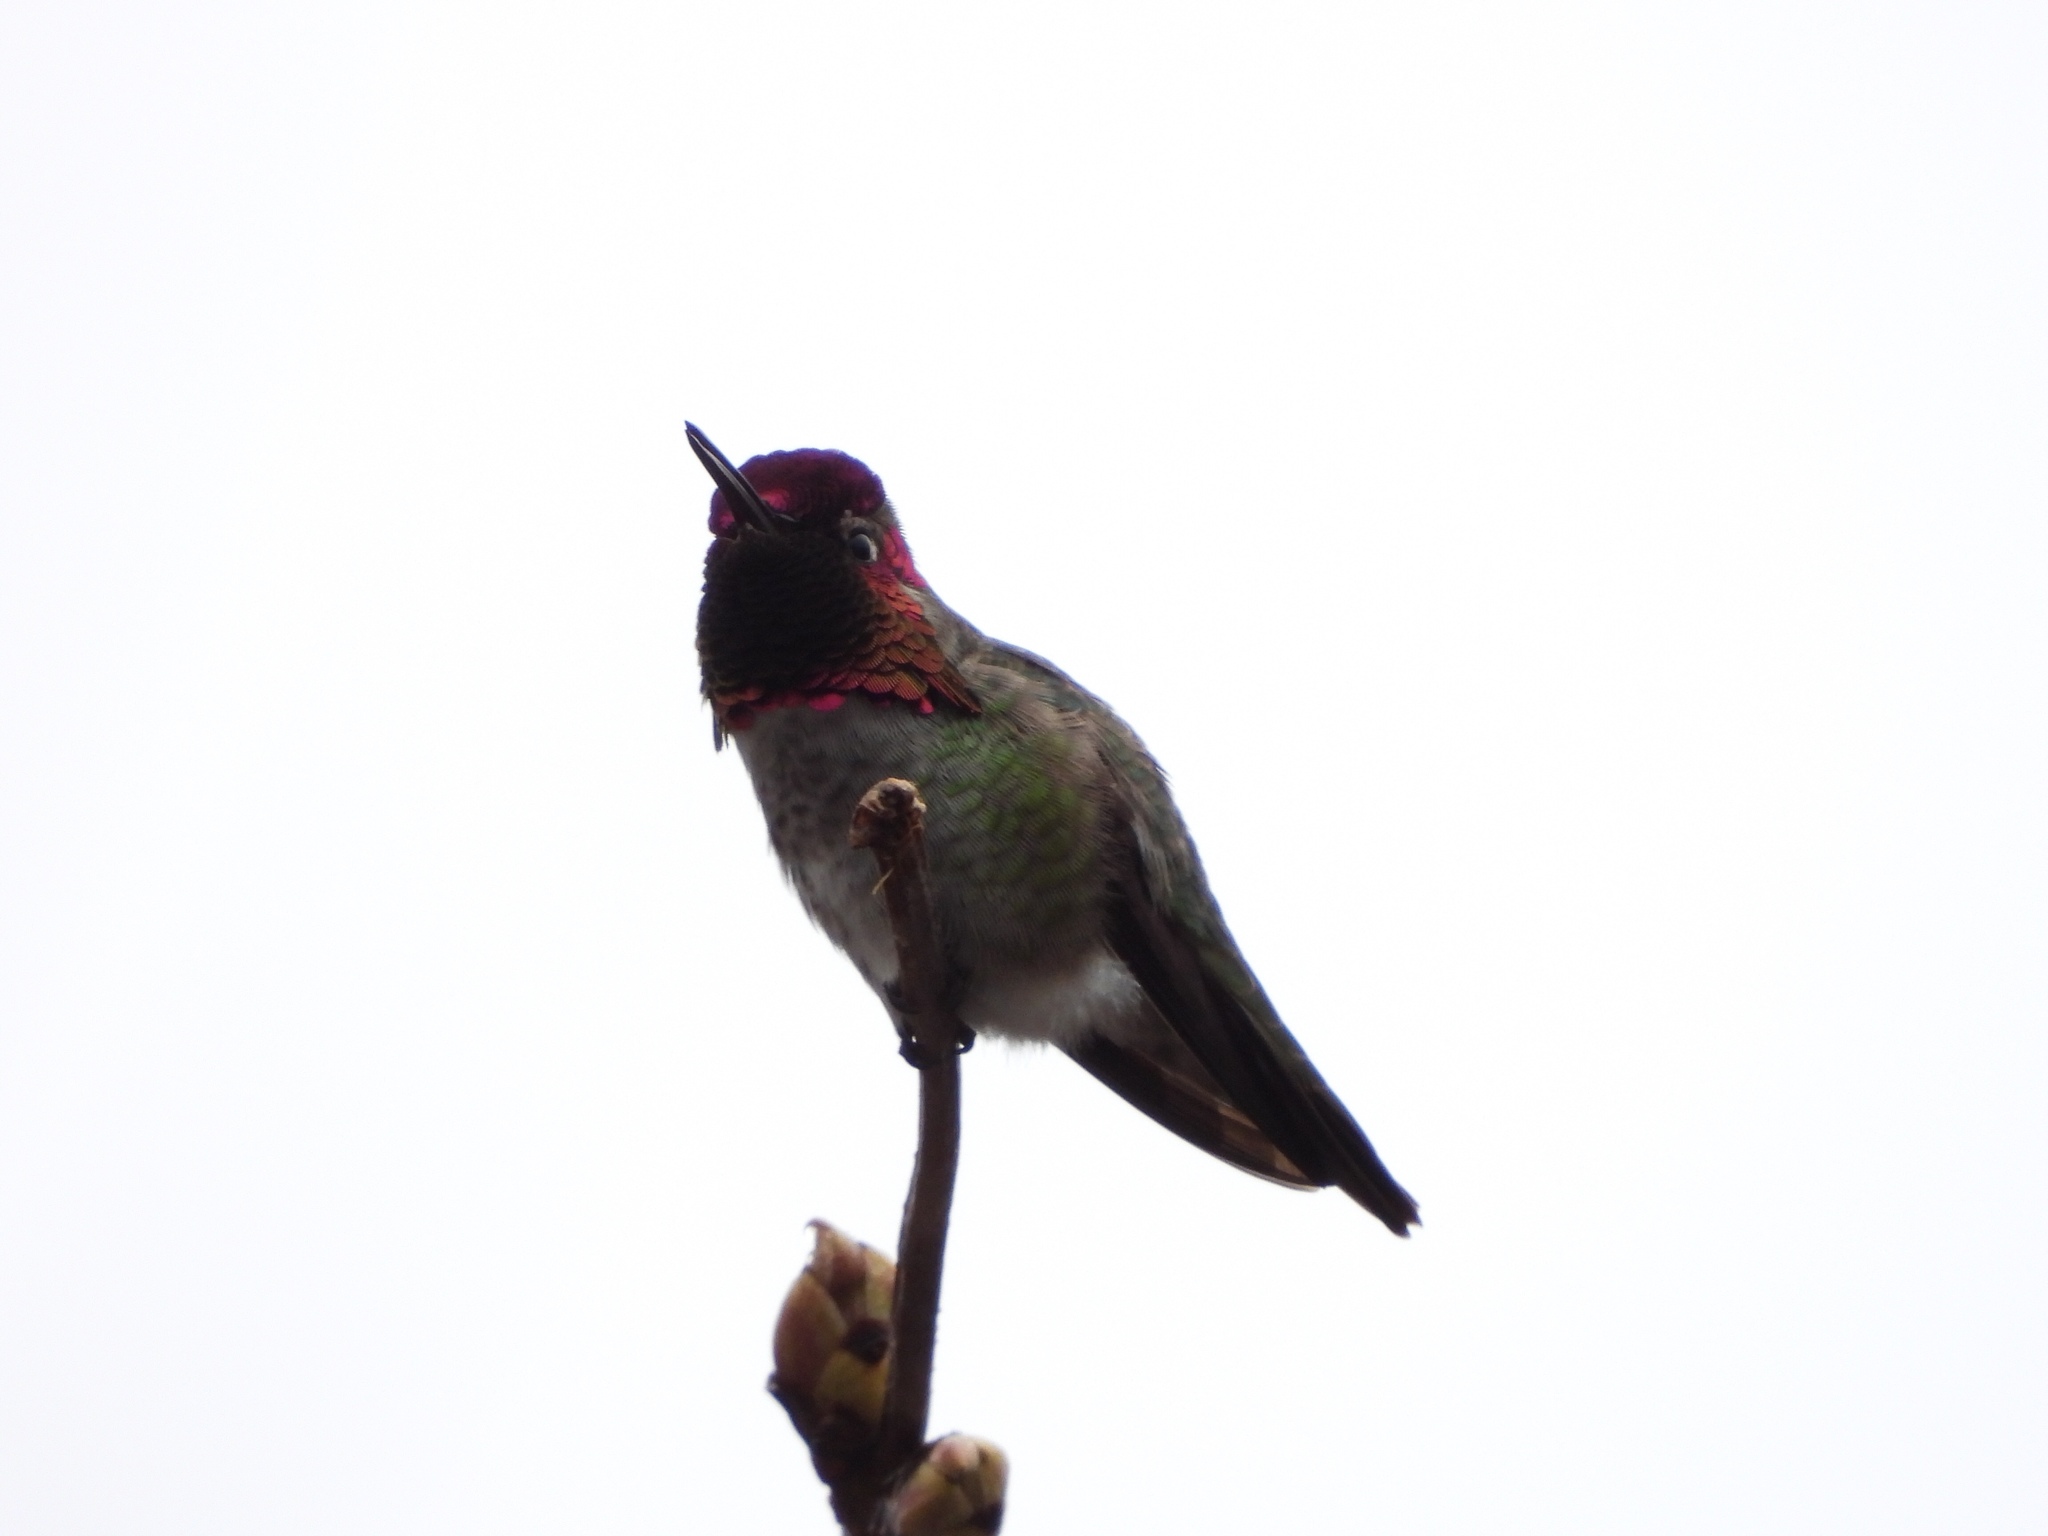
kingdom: Animalia
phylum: Chordata
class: Aves
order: Apodiformes
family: Trochilidae
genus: Calypte
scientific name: Calypte anna
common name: Anna's hummingbird
